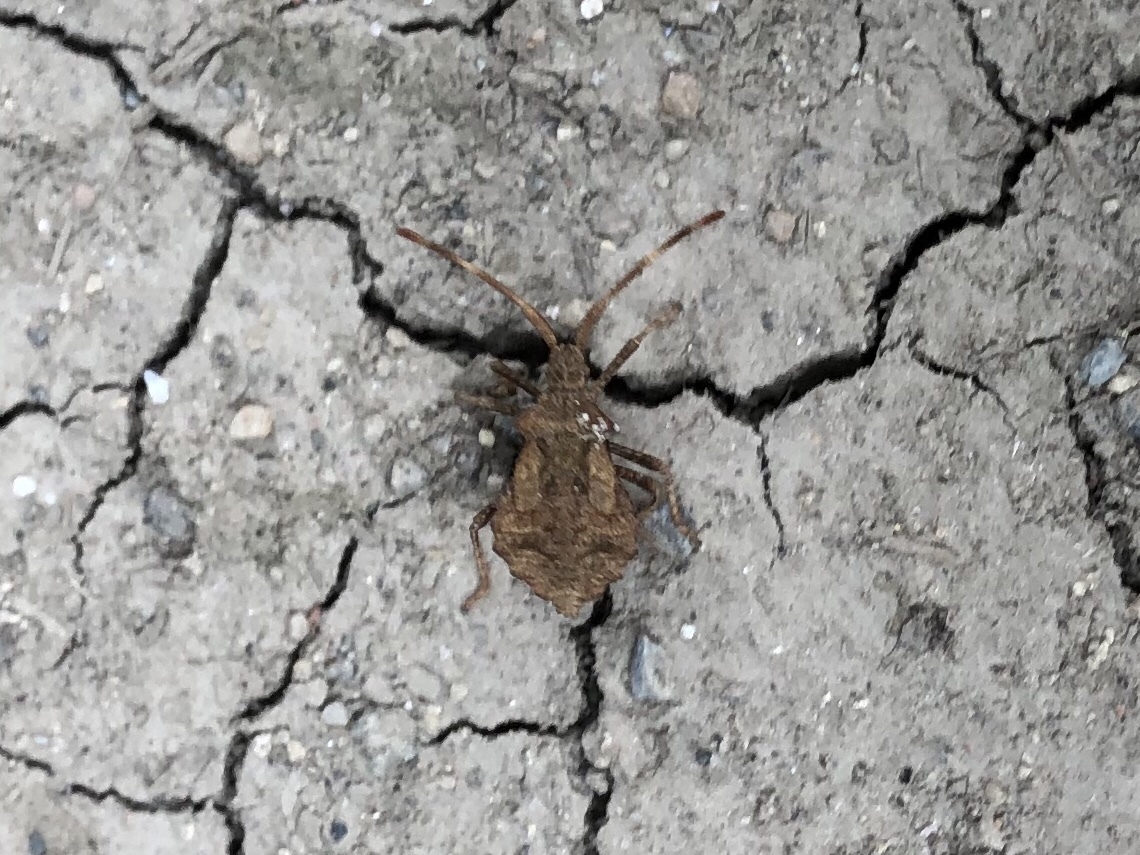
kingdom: Animalia
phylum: Arthropoda
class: Insecta
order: Hemiptera
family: Coreidae
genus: Coreus
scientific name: Coreus marginatus
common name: Dock bug
